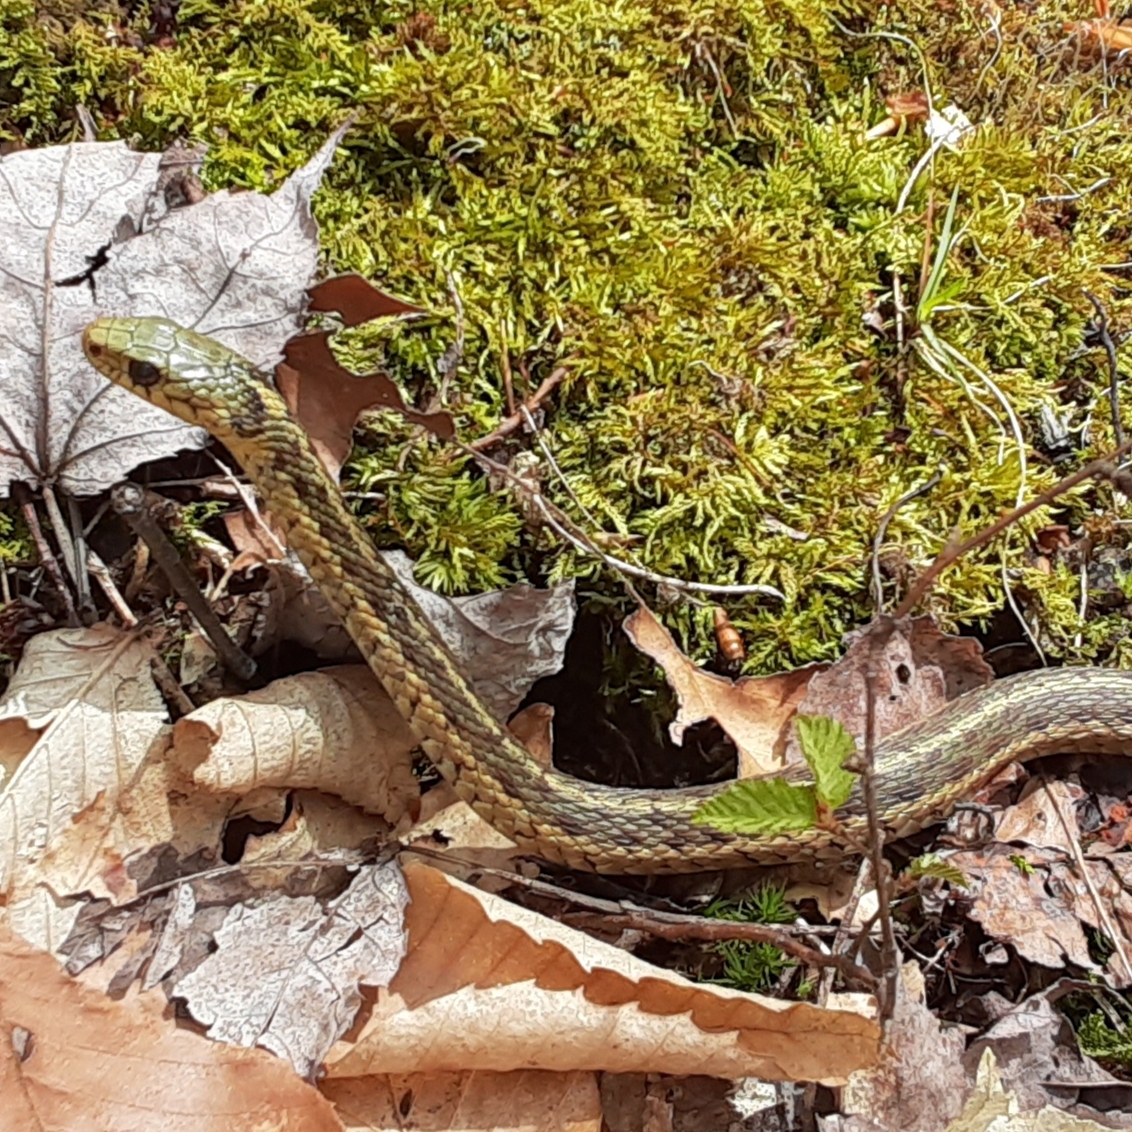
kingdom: Animalia
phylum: Chordata
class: Squamata
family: Colubridae
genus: Thamnophis
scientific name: Thamnophis sirtalis
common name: Common garter snake
